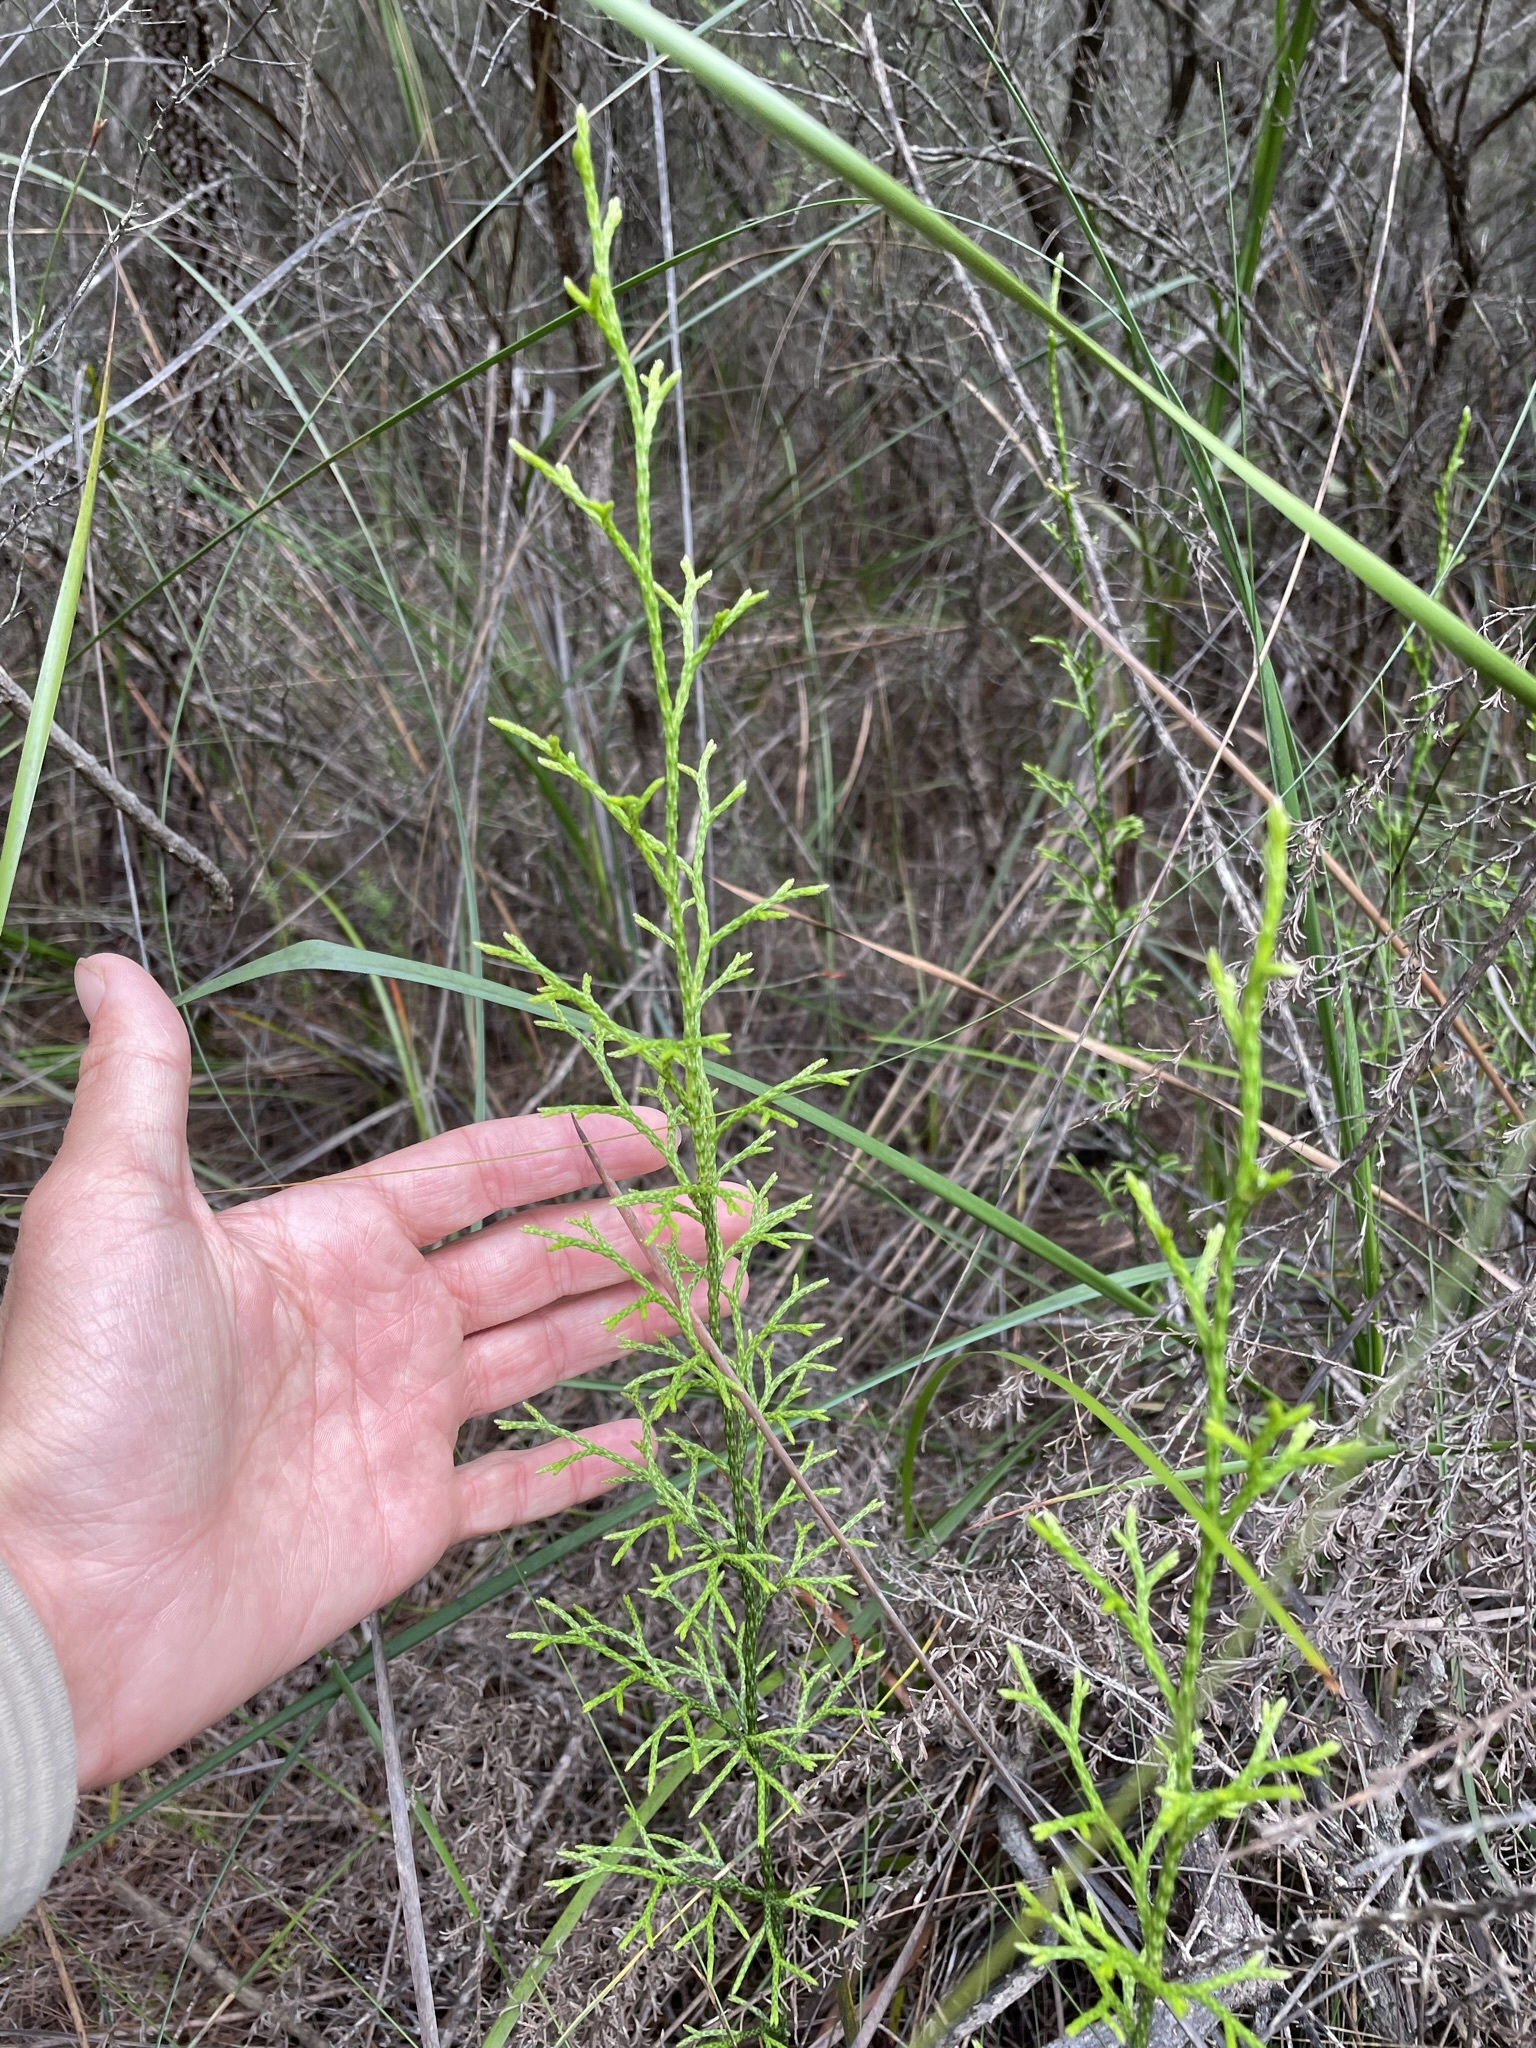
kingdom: Plantae
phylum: Tracheophyta
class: Lycopodiopsida
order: Lycopodiales
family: Lycopodiaceae
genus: Pseudolycopodium
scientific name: Pseudolycopodium densum
